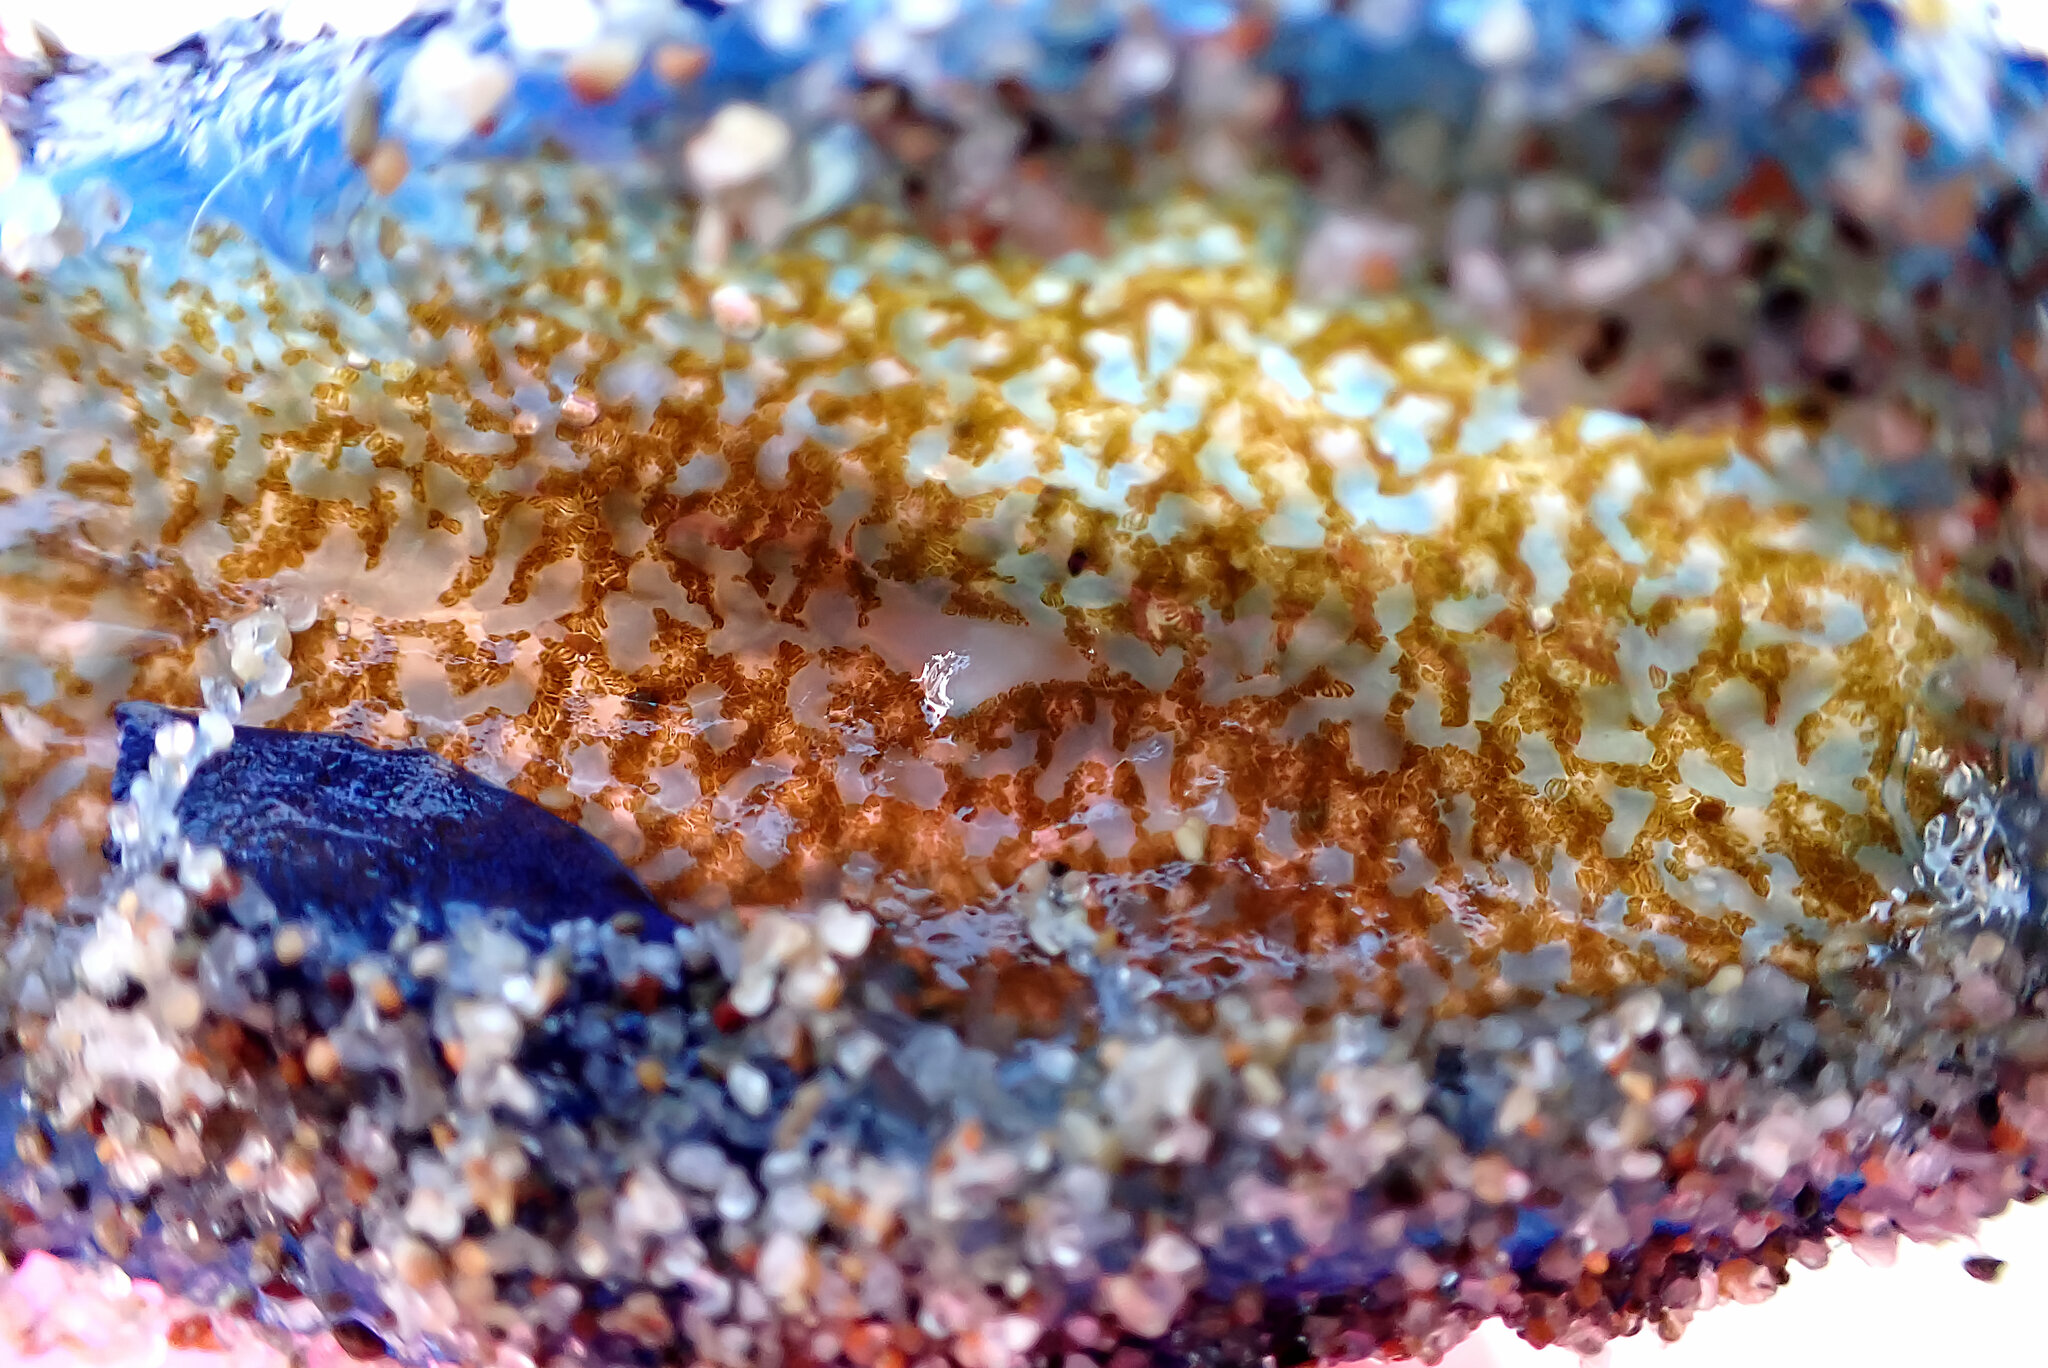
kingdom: Animalia
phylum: Cnidaria
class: Hydrozoa
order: Anthoathecata
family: Porpitidae
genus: Velella
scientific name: Velella velella
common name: By-the-wind-sailor
